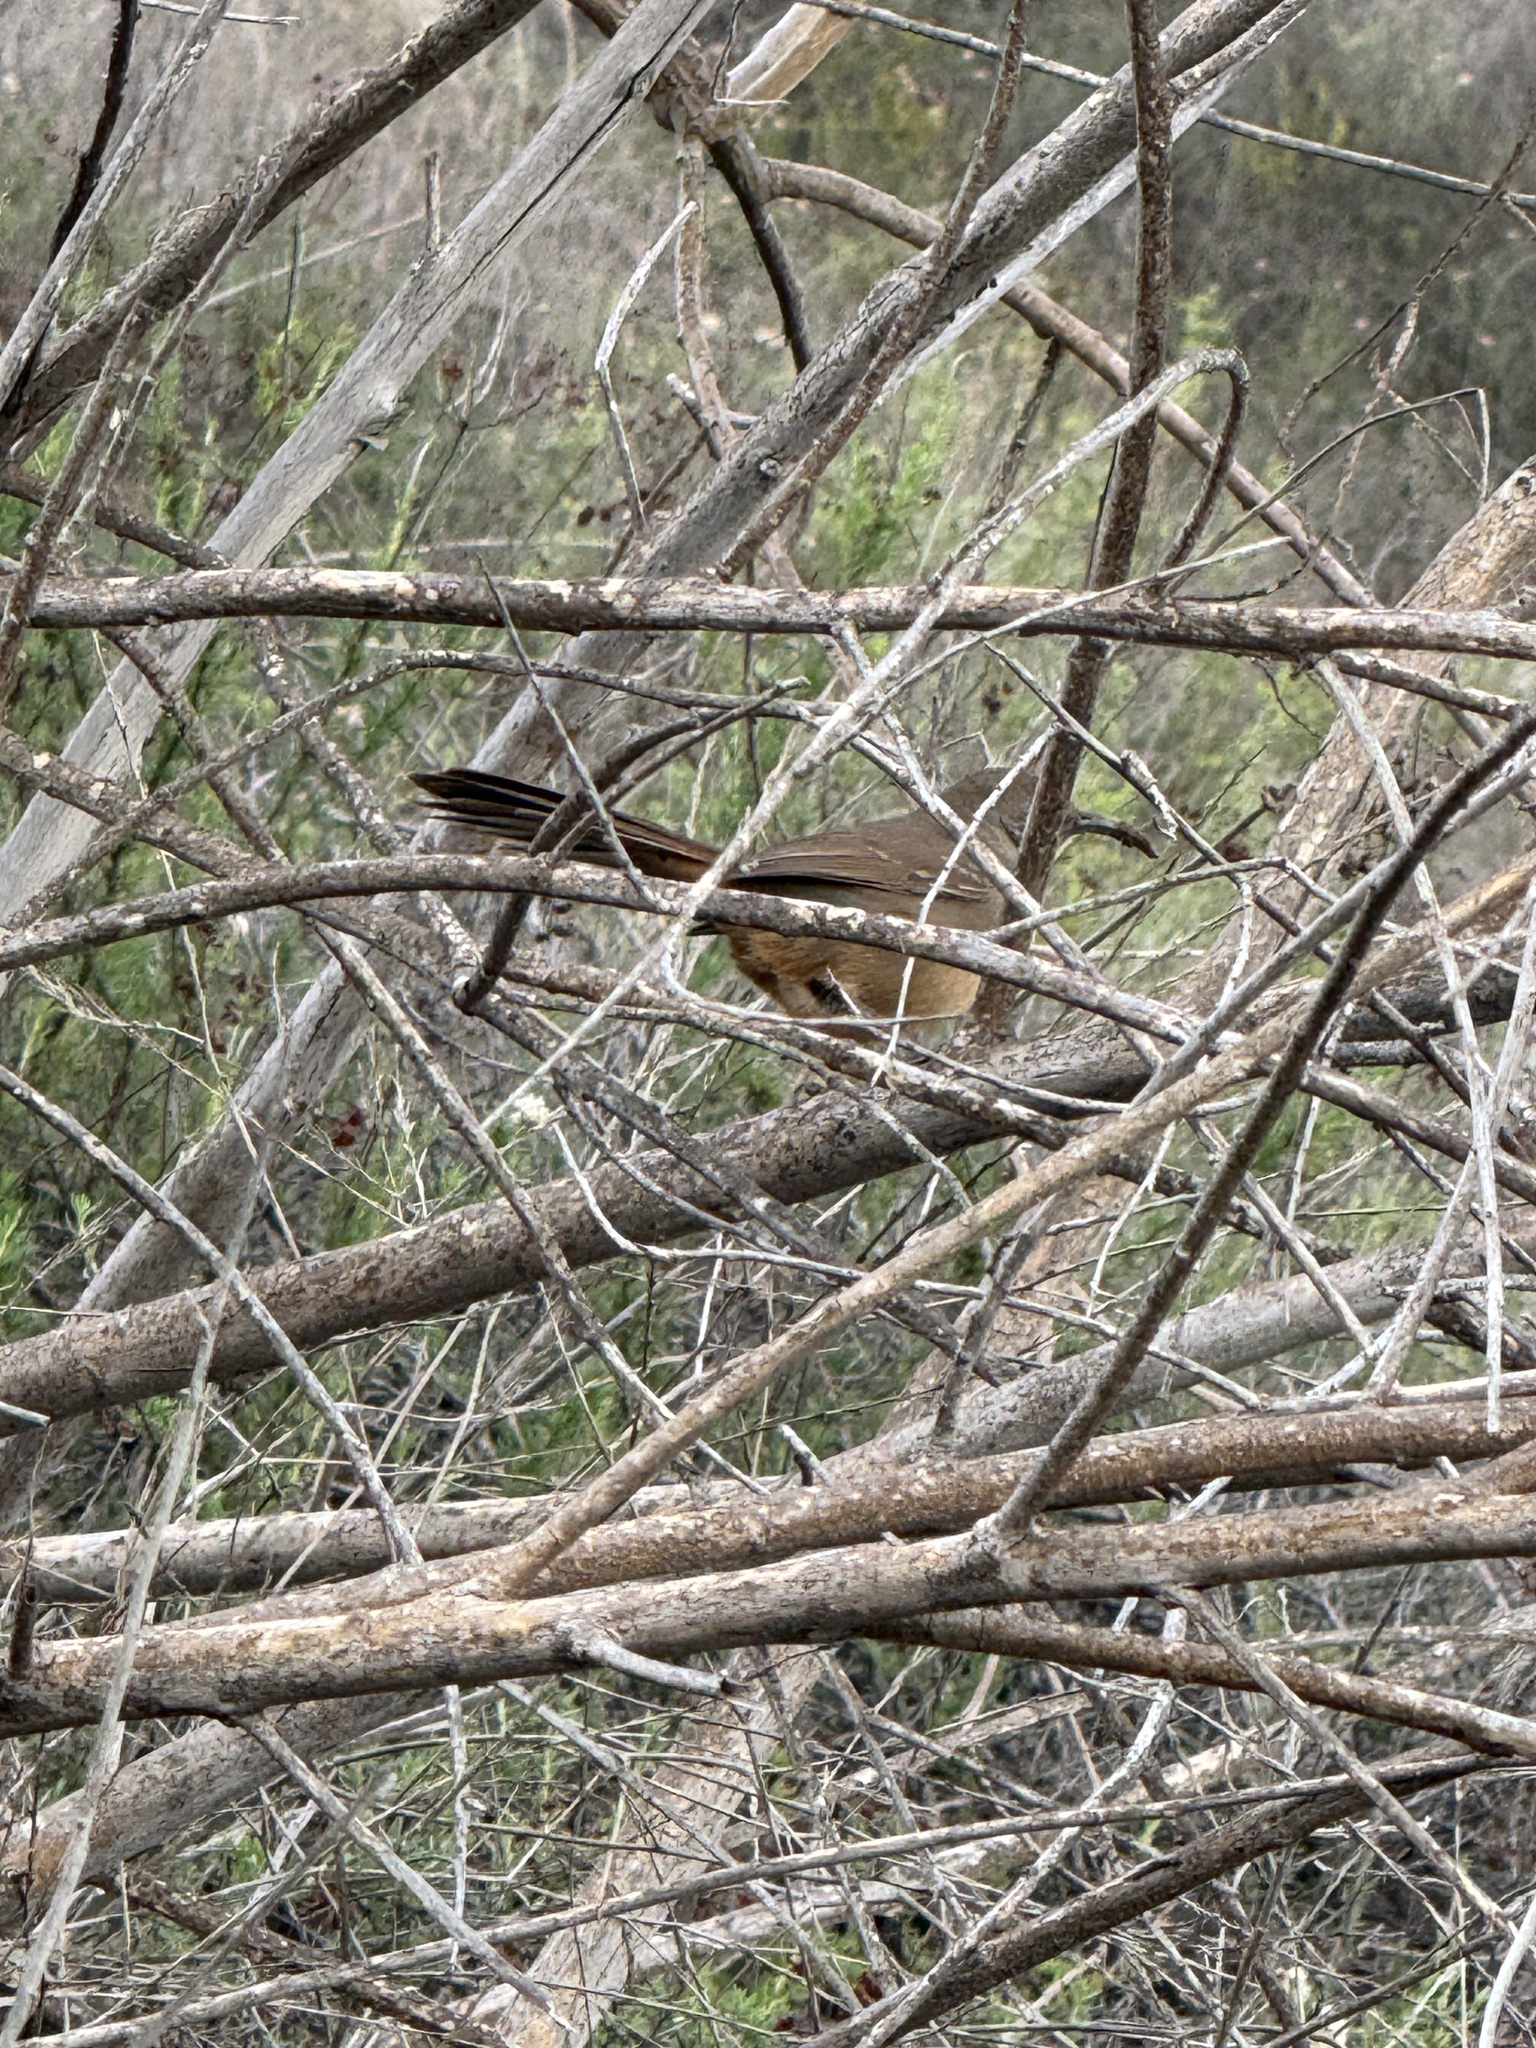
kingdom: Animalia
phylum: Chordata
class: Aves
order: Passeriformes
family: Mimidae
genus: Toxostoma
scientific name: Toxostoma redivivum
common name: California thrasher
